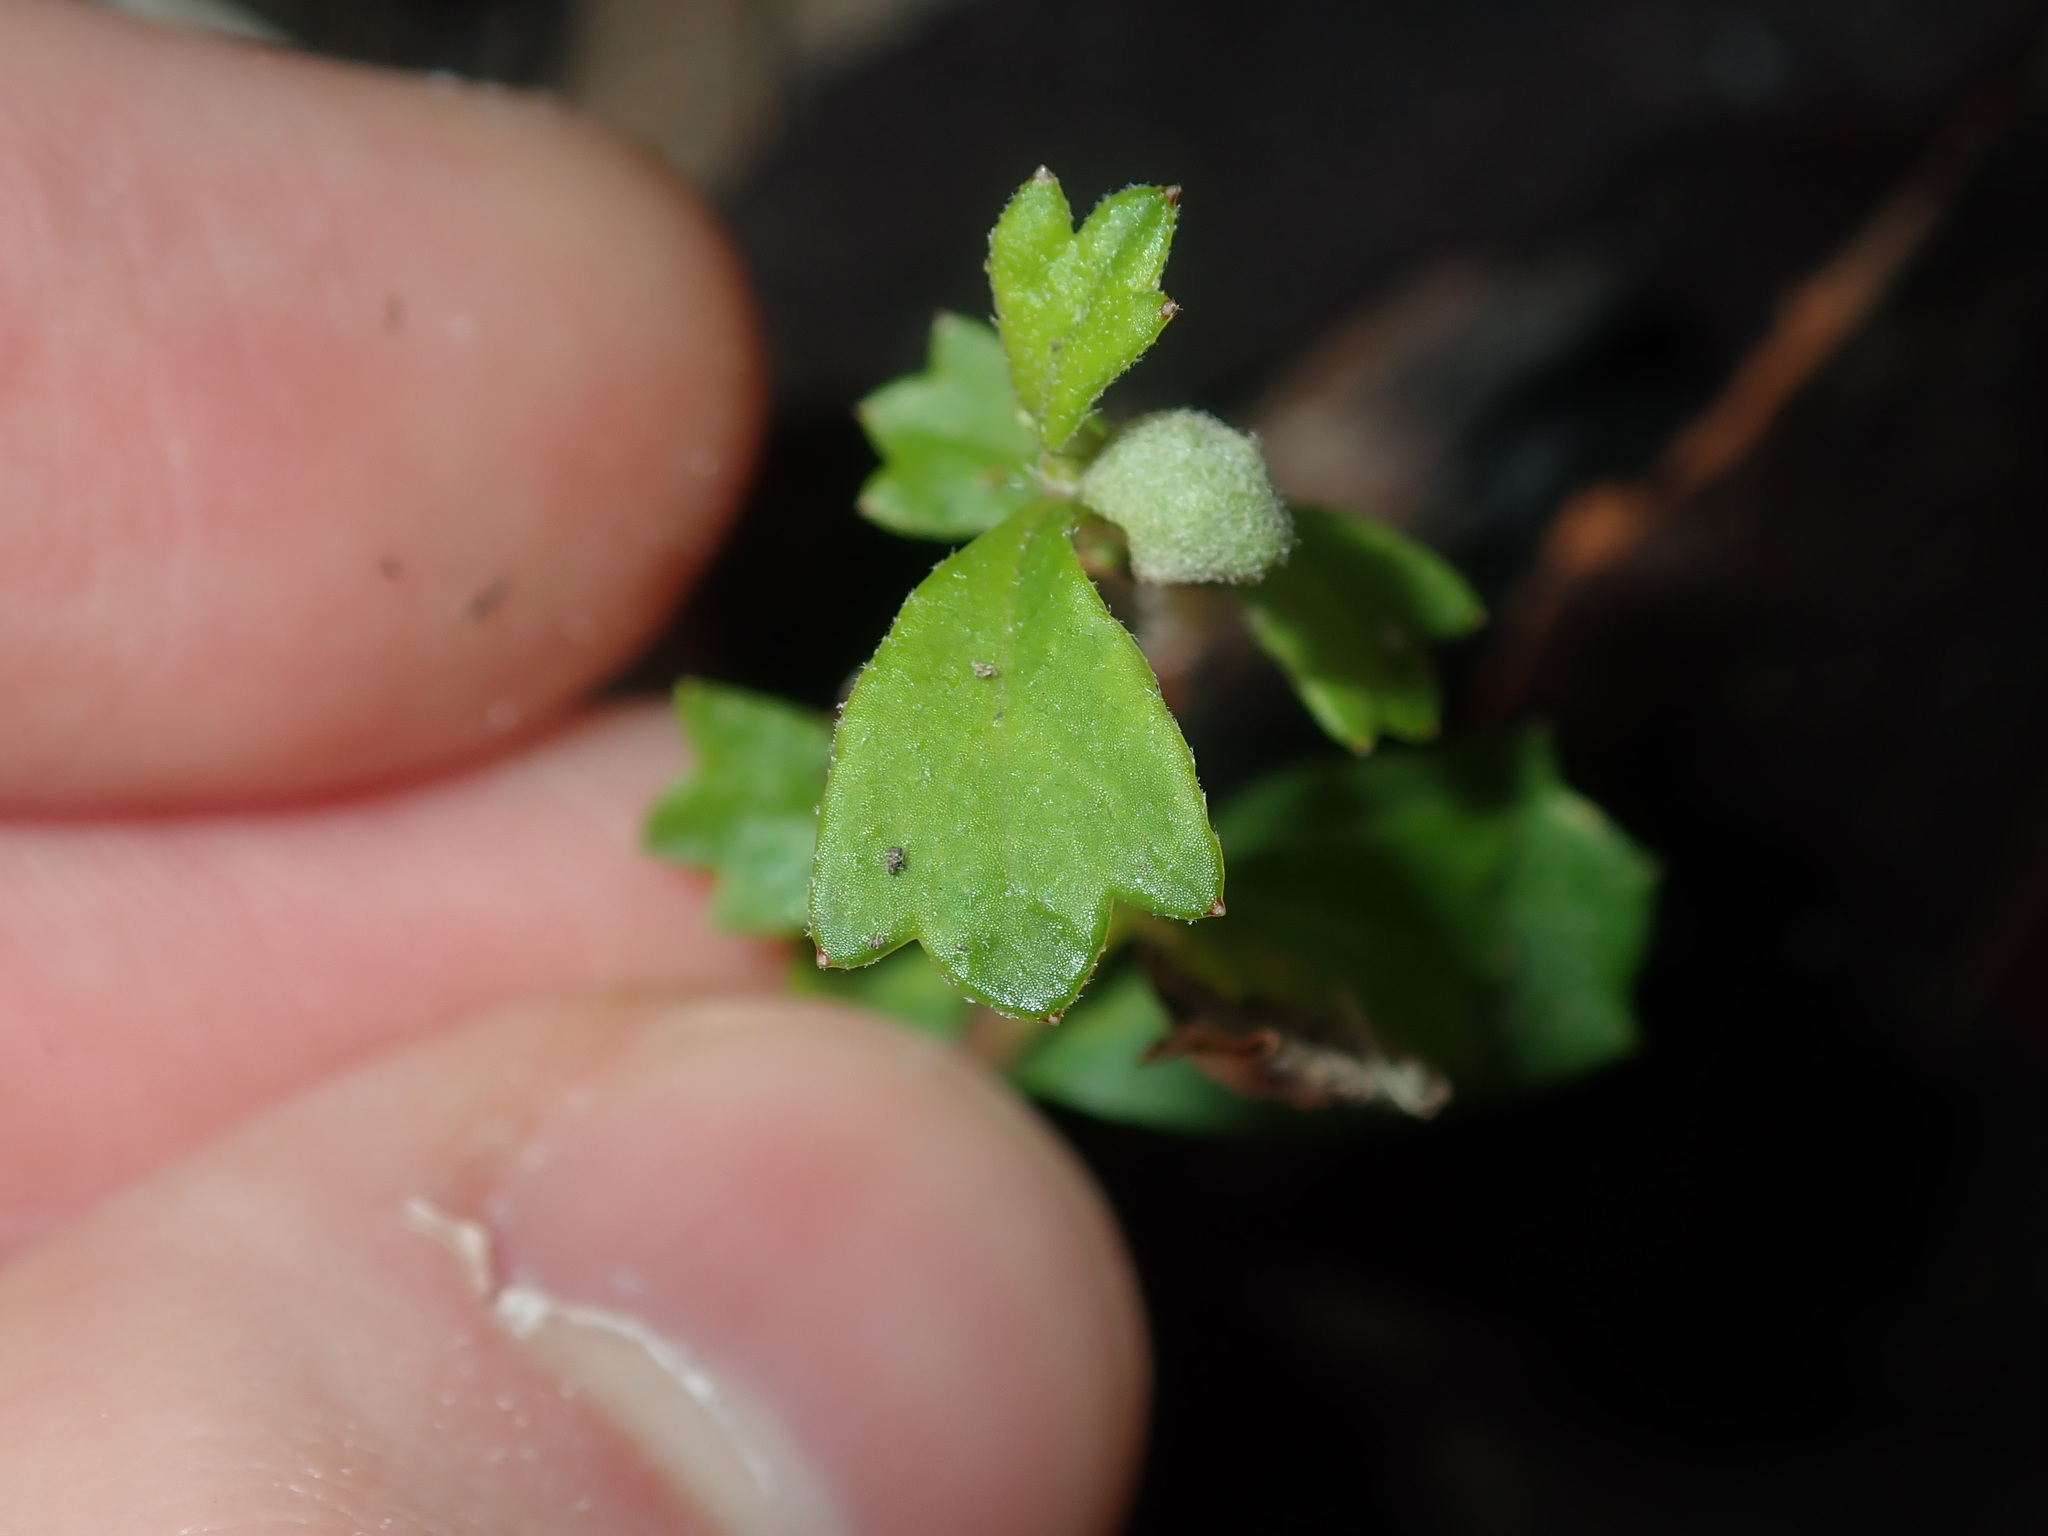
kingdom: Plantae
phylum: Tracheophyta
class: Magnoliopsida
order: Apiales
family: Apiaceae
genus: Xanthosia
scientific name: Xanthosia tridentata
